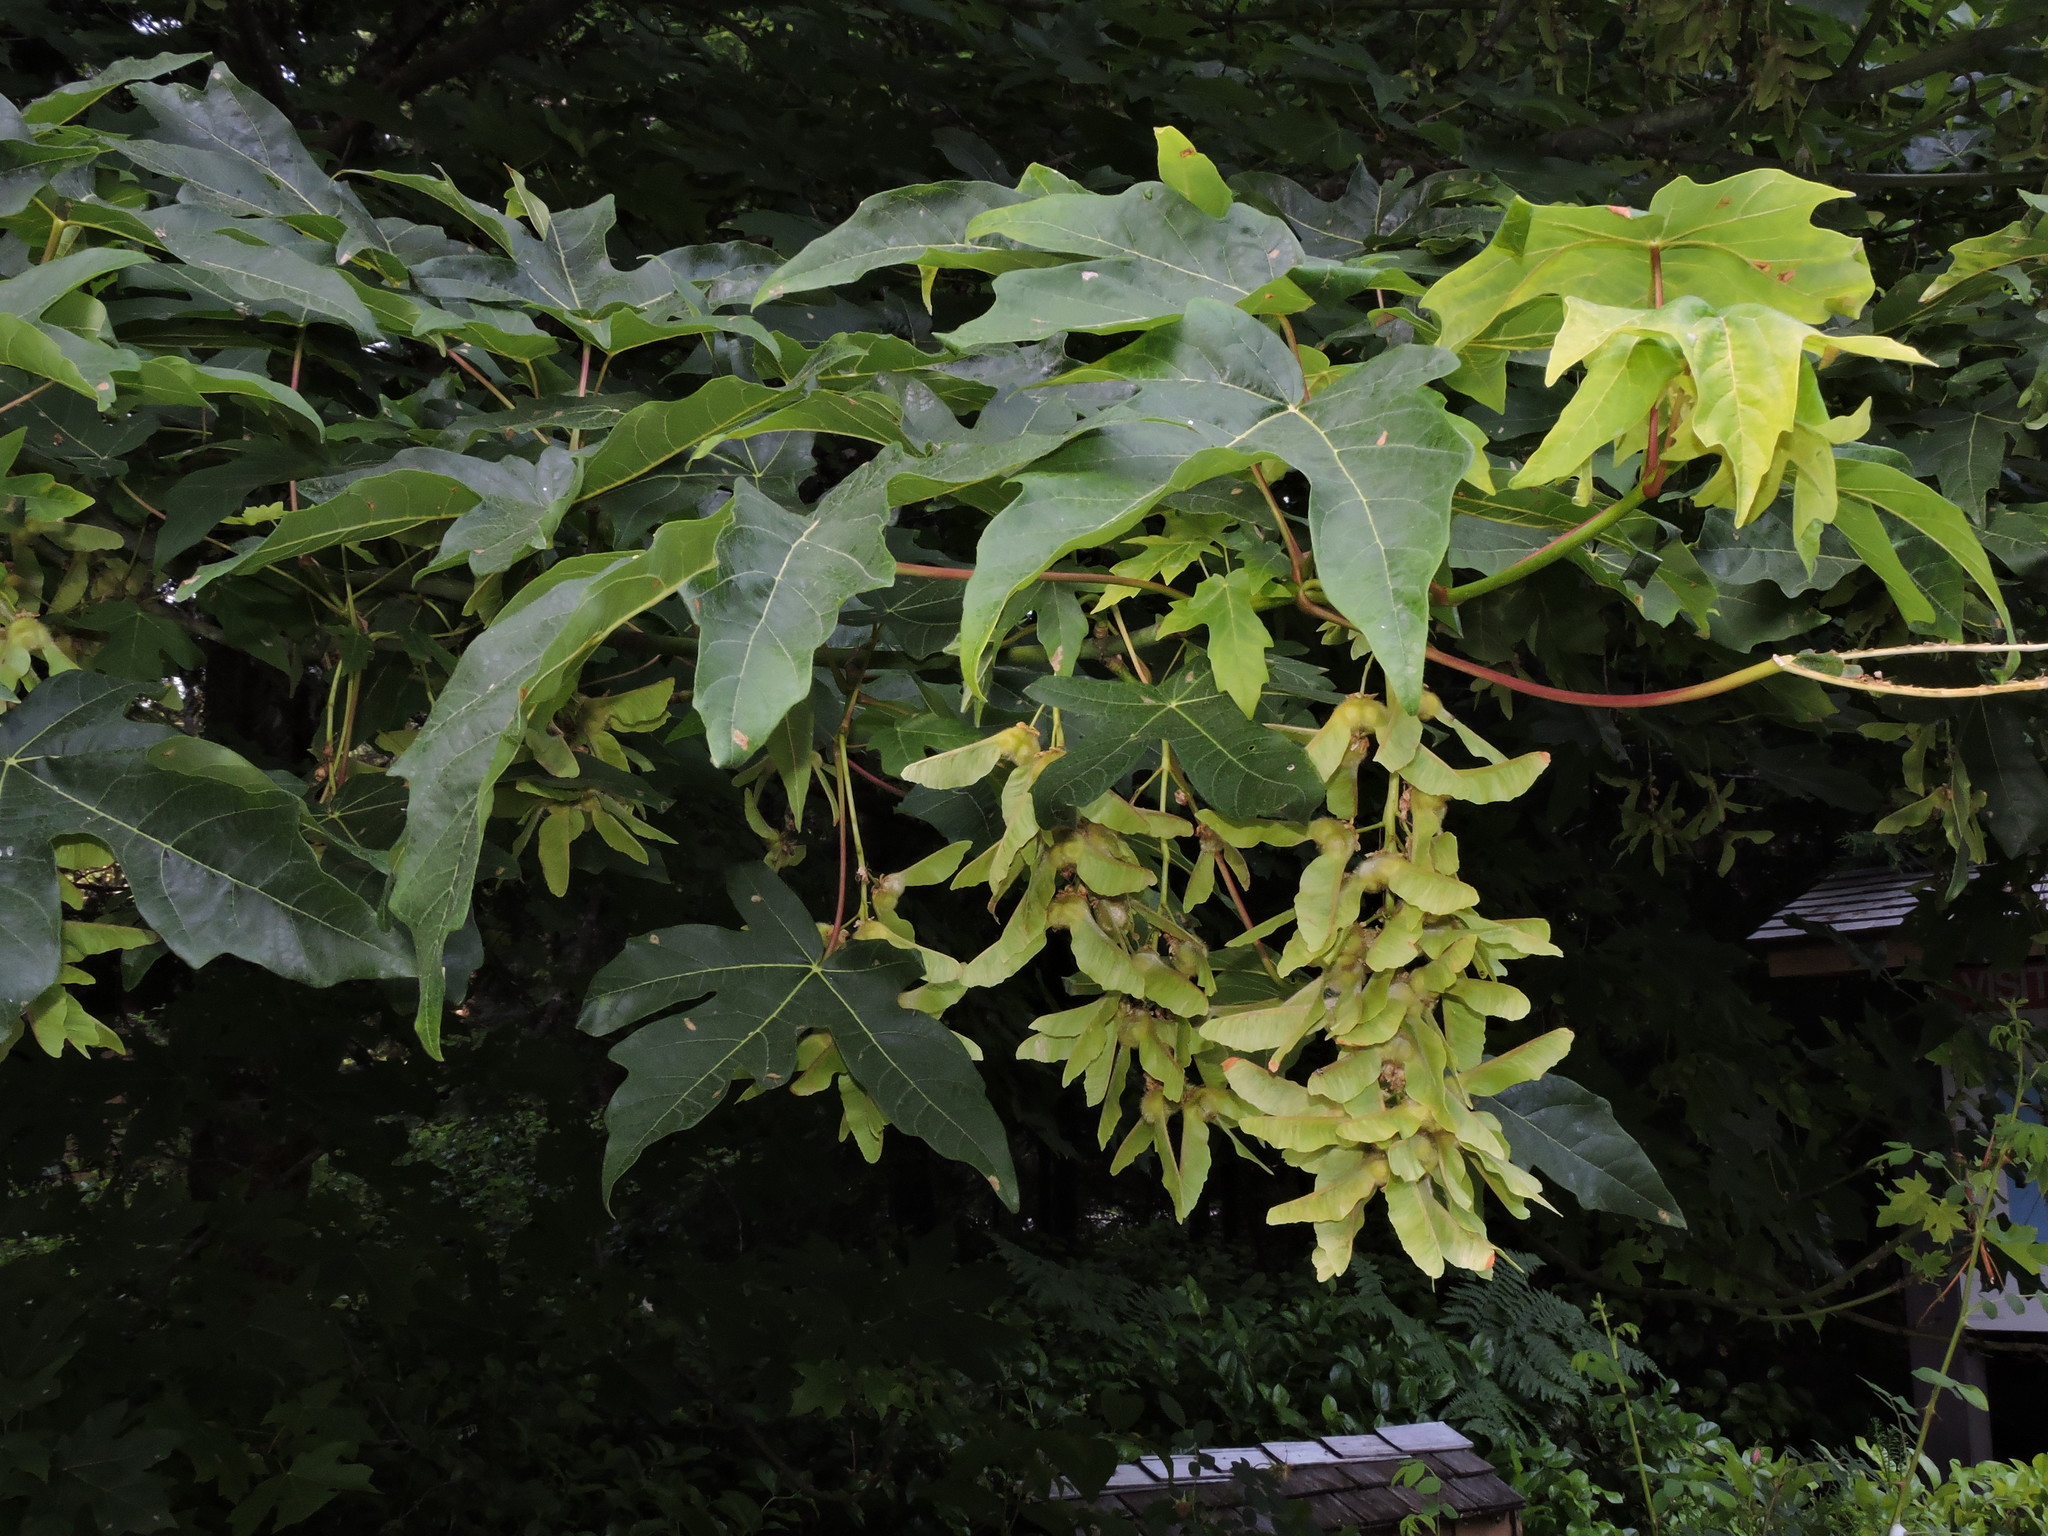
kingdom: Plantae
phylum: Tracheophyta
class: Magnoliopsida
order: Sapindales
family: Sapindaceae
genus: Acer
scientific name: Acer macrophyllum
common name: Oregon maple
